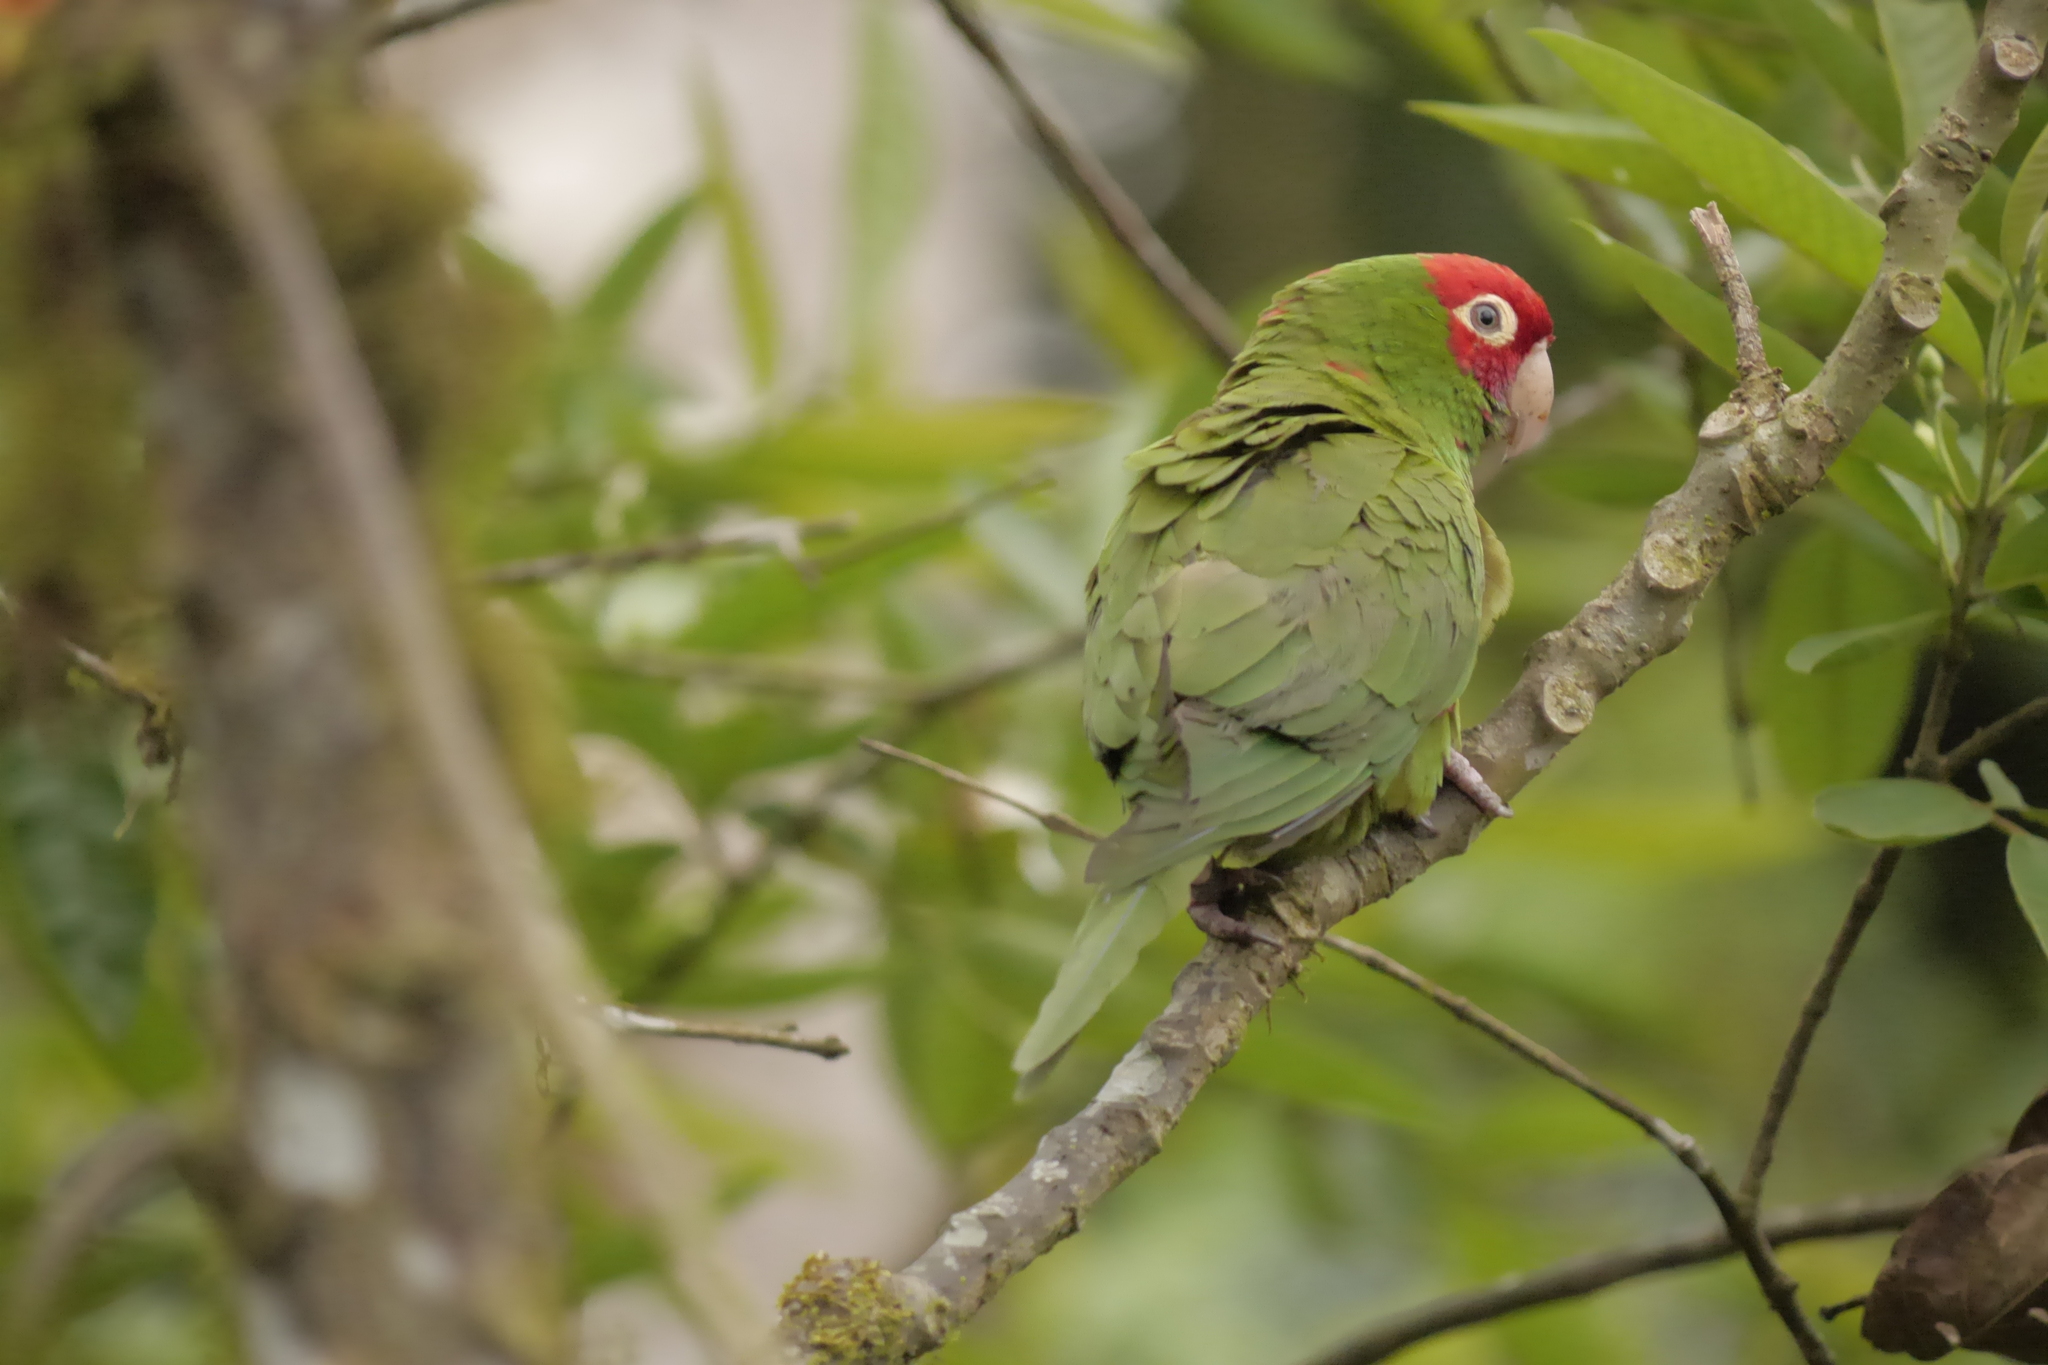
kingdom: Animalia
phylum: Chordata
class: Aves
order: Psittaciformes
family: Psittacidae
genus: Aratinga
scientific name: Aratinga erythrogenys
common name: Red-masked parakeet
